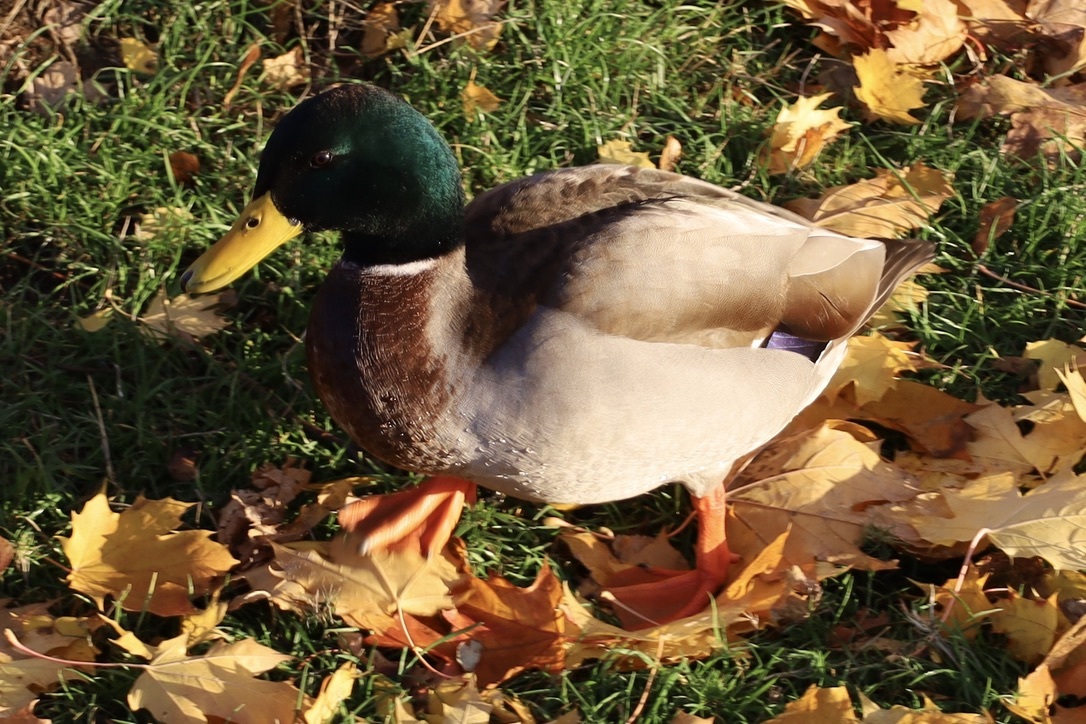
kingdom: Animalia
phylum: Chordata
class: Aves
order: Anseriformes
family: Anatidae
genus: Anas
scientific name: Anas platyrhynchos
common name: Mallard
